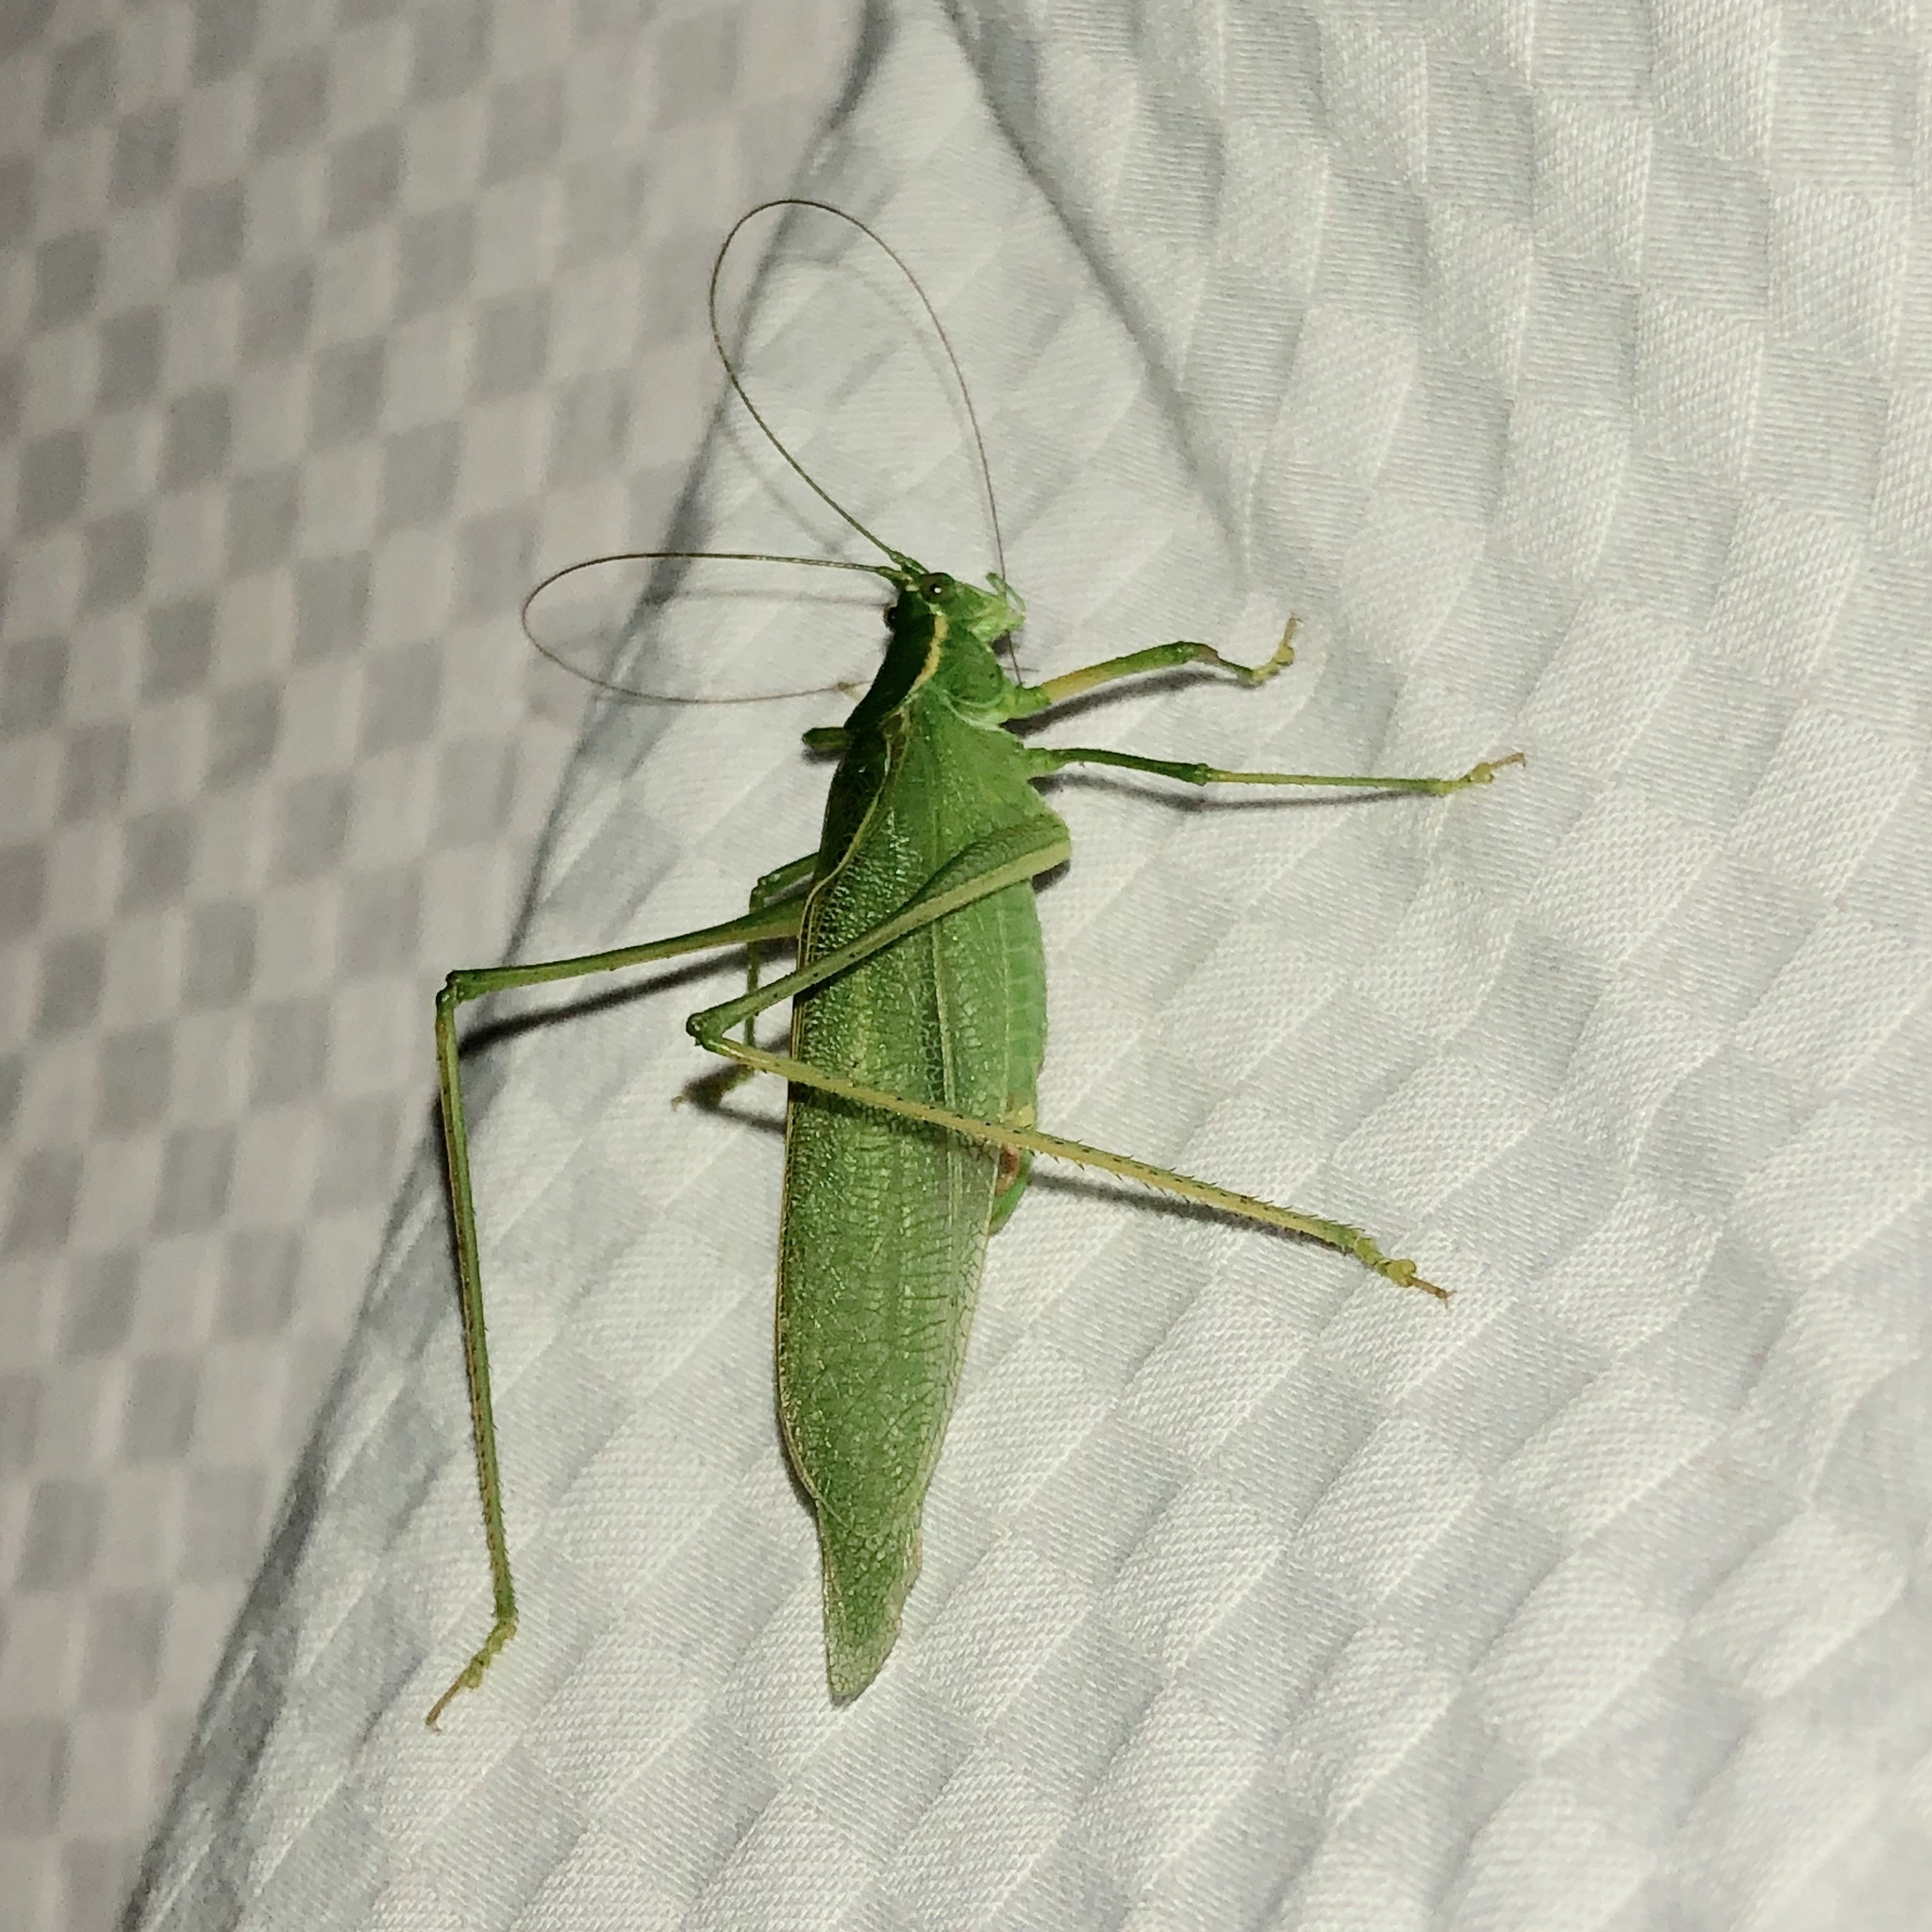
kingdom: Animalia
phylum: Arthropoda
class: Insecta
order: Orthoptera
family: Tettigoniidae
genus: Scudderia
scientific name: Scudderia septentrionalis
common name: Northern bush-katydid
